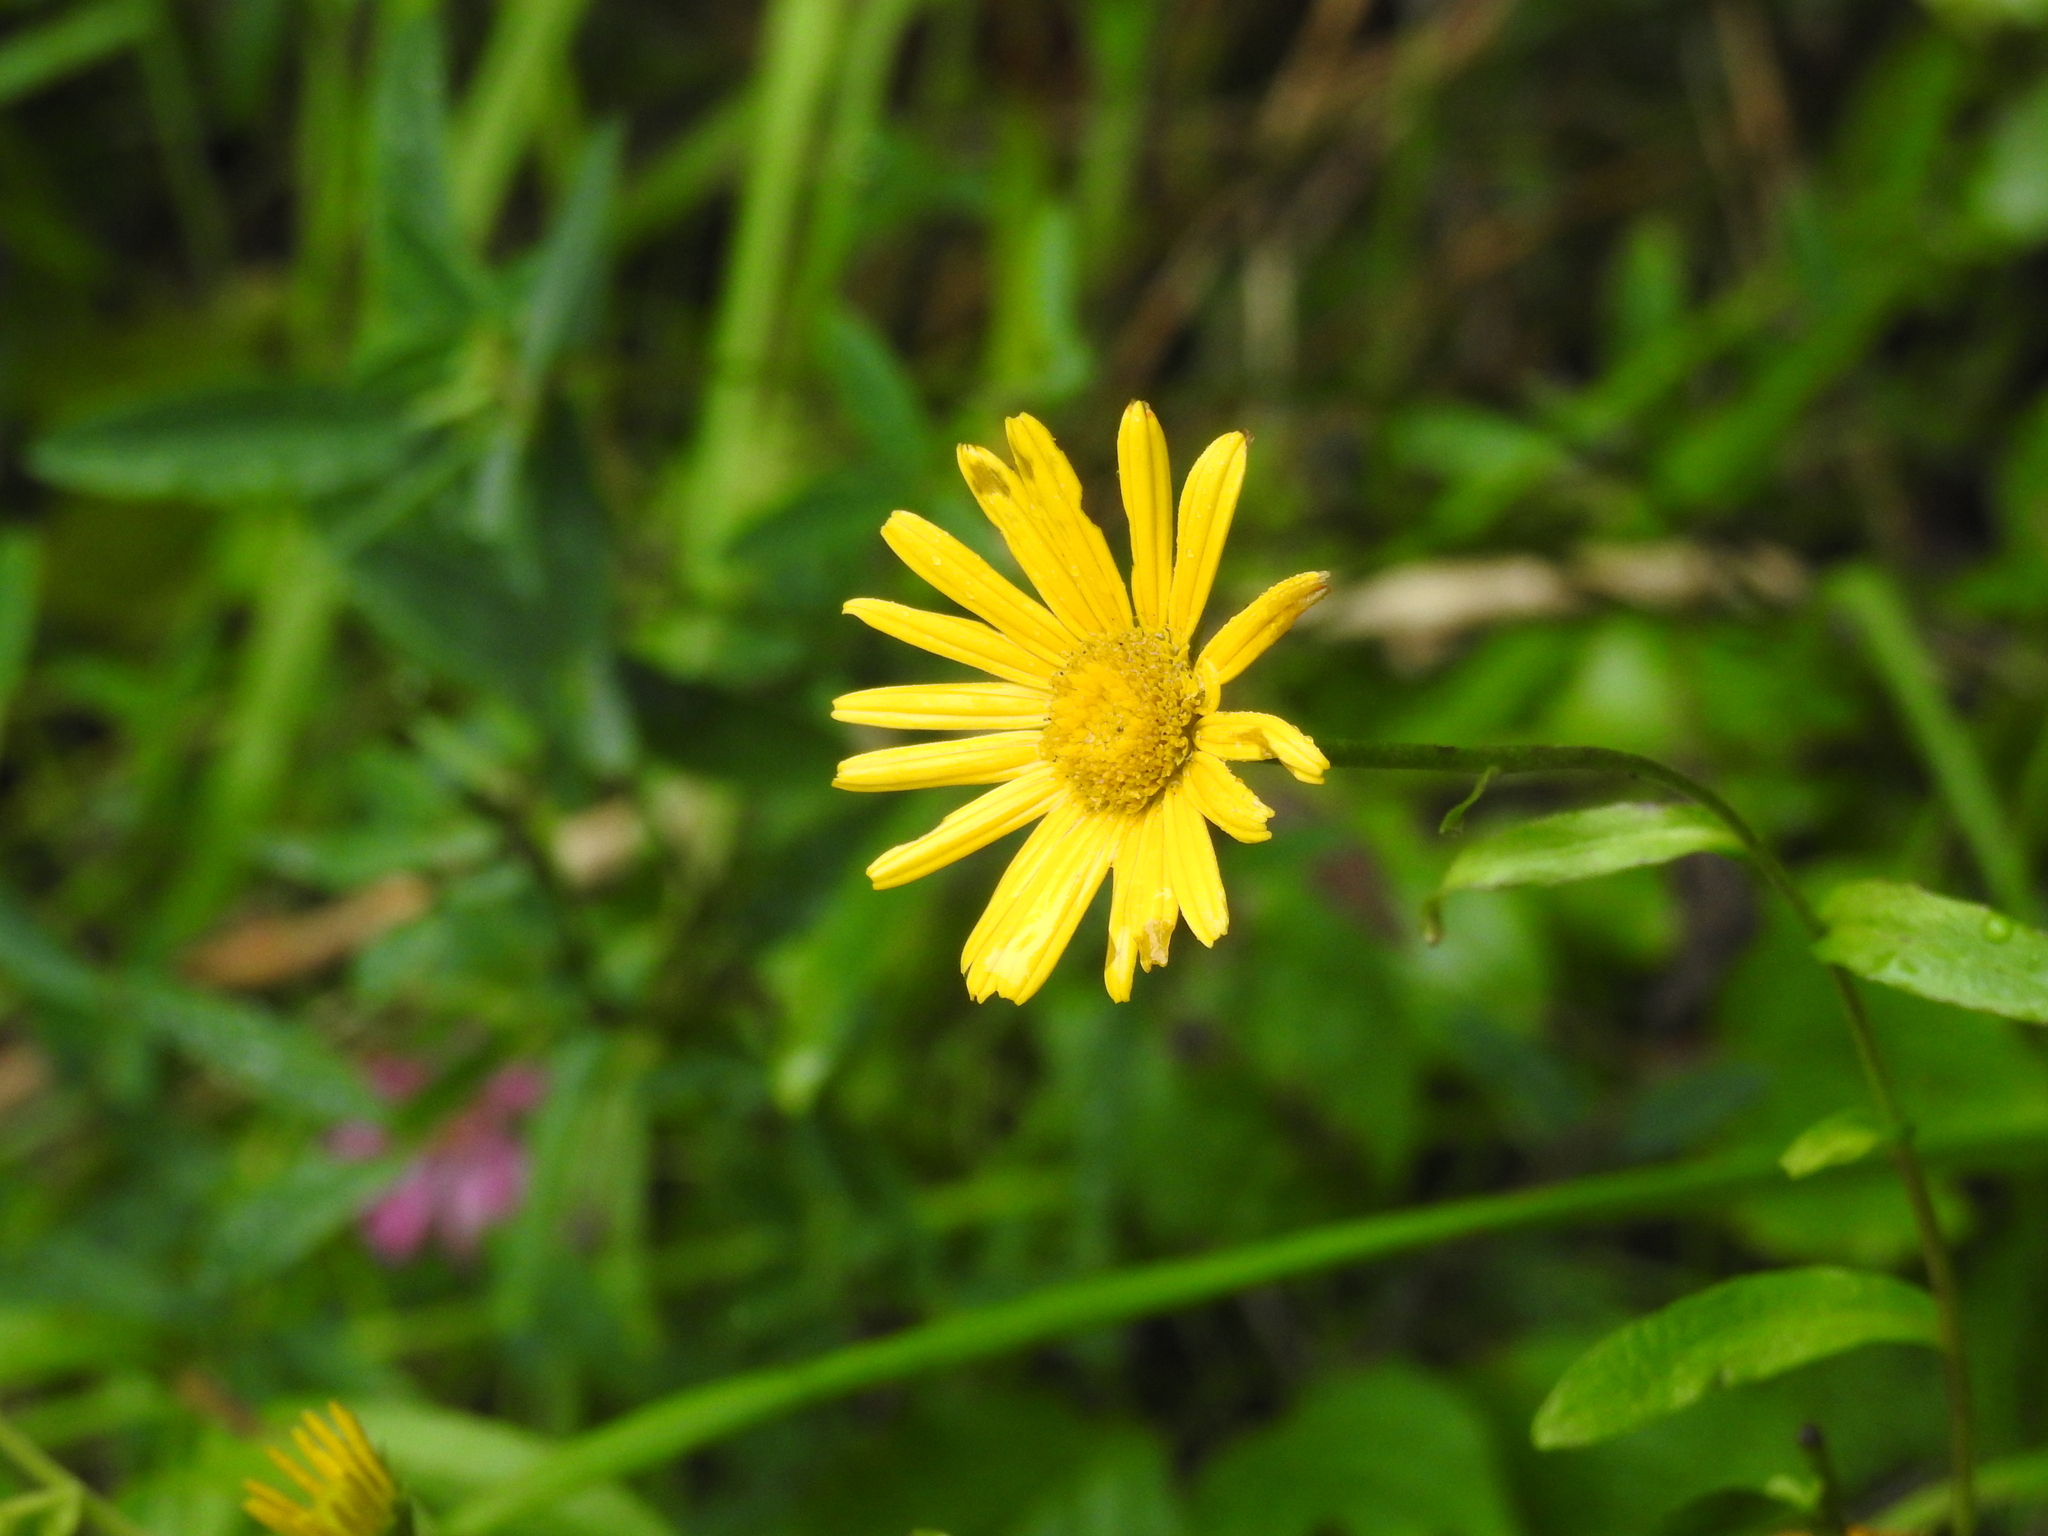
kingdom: Plantae
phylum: Tracheophyta
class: Magnoliopsida
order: Asterales
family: Asteraceae
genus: Buphthalmum
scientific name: Buphthalmum salicifolium
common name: Willow-leaved yellow-oxeye
